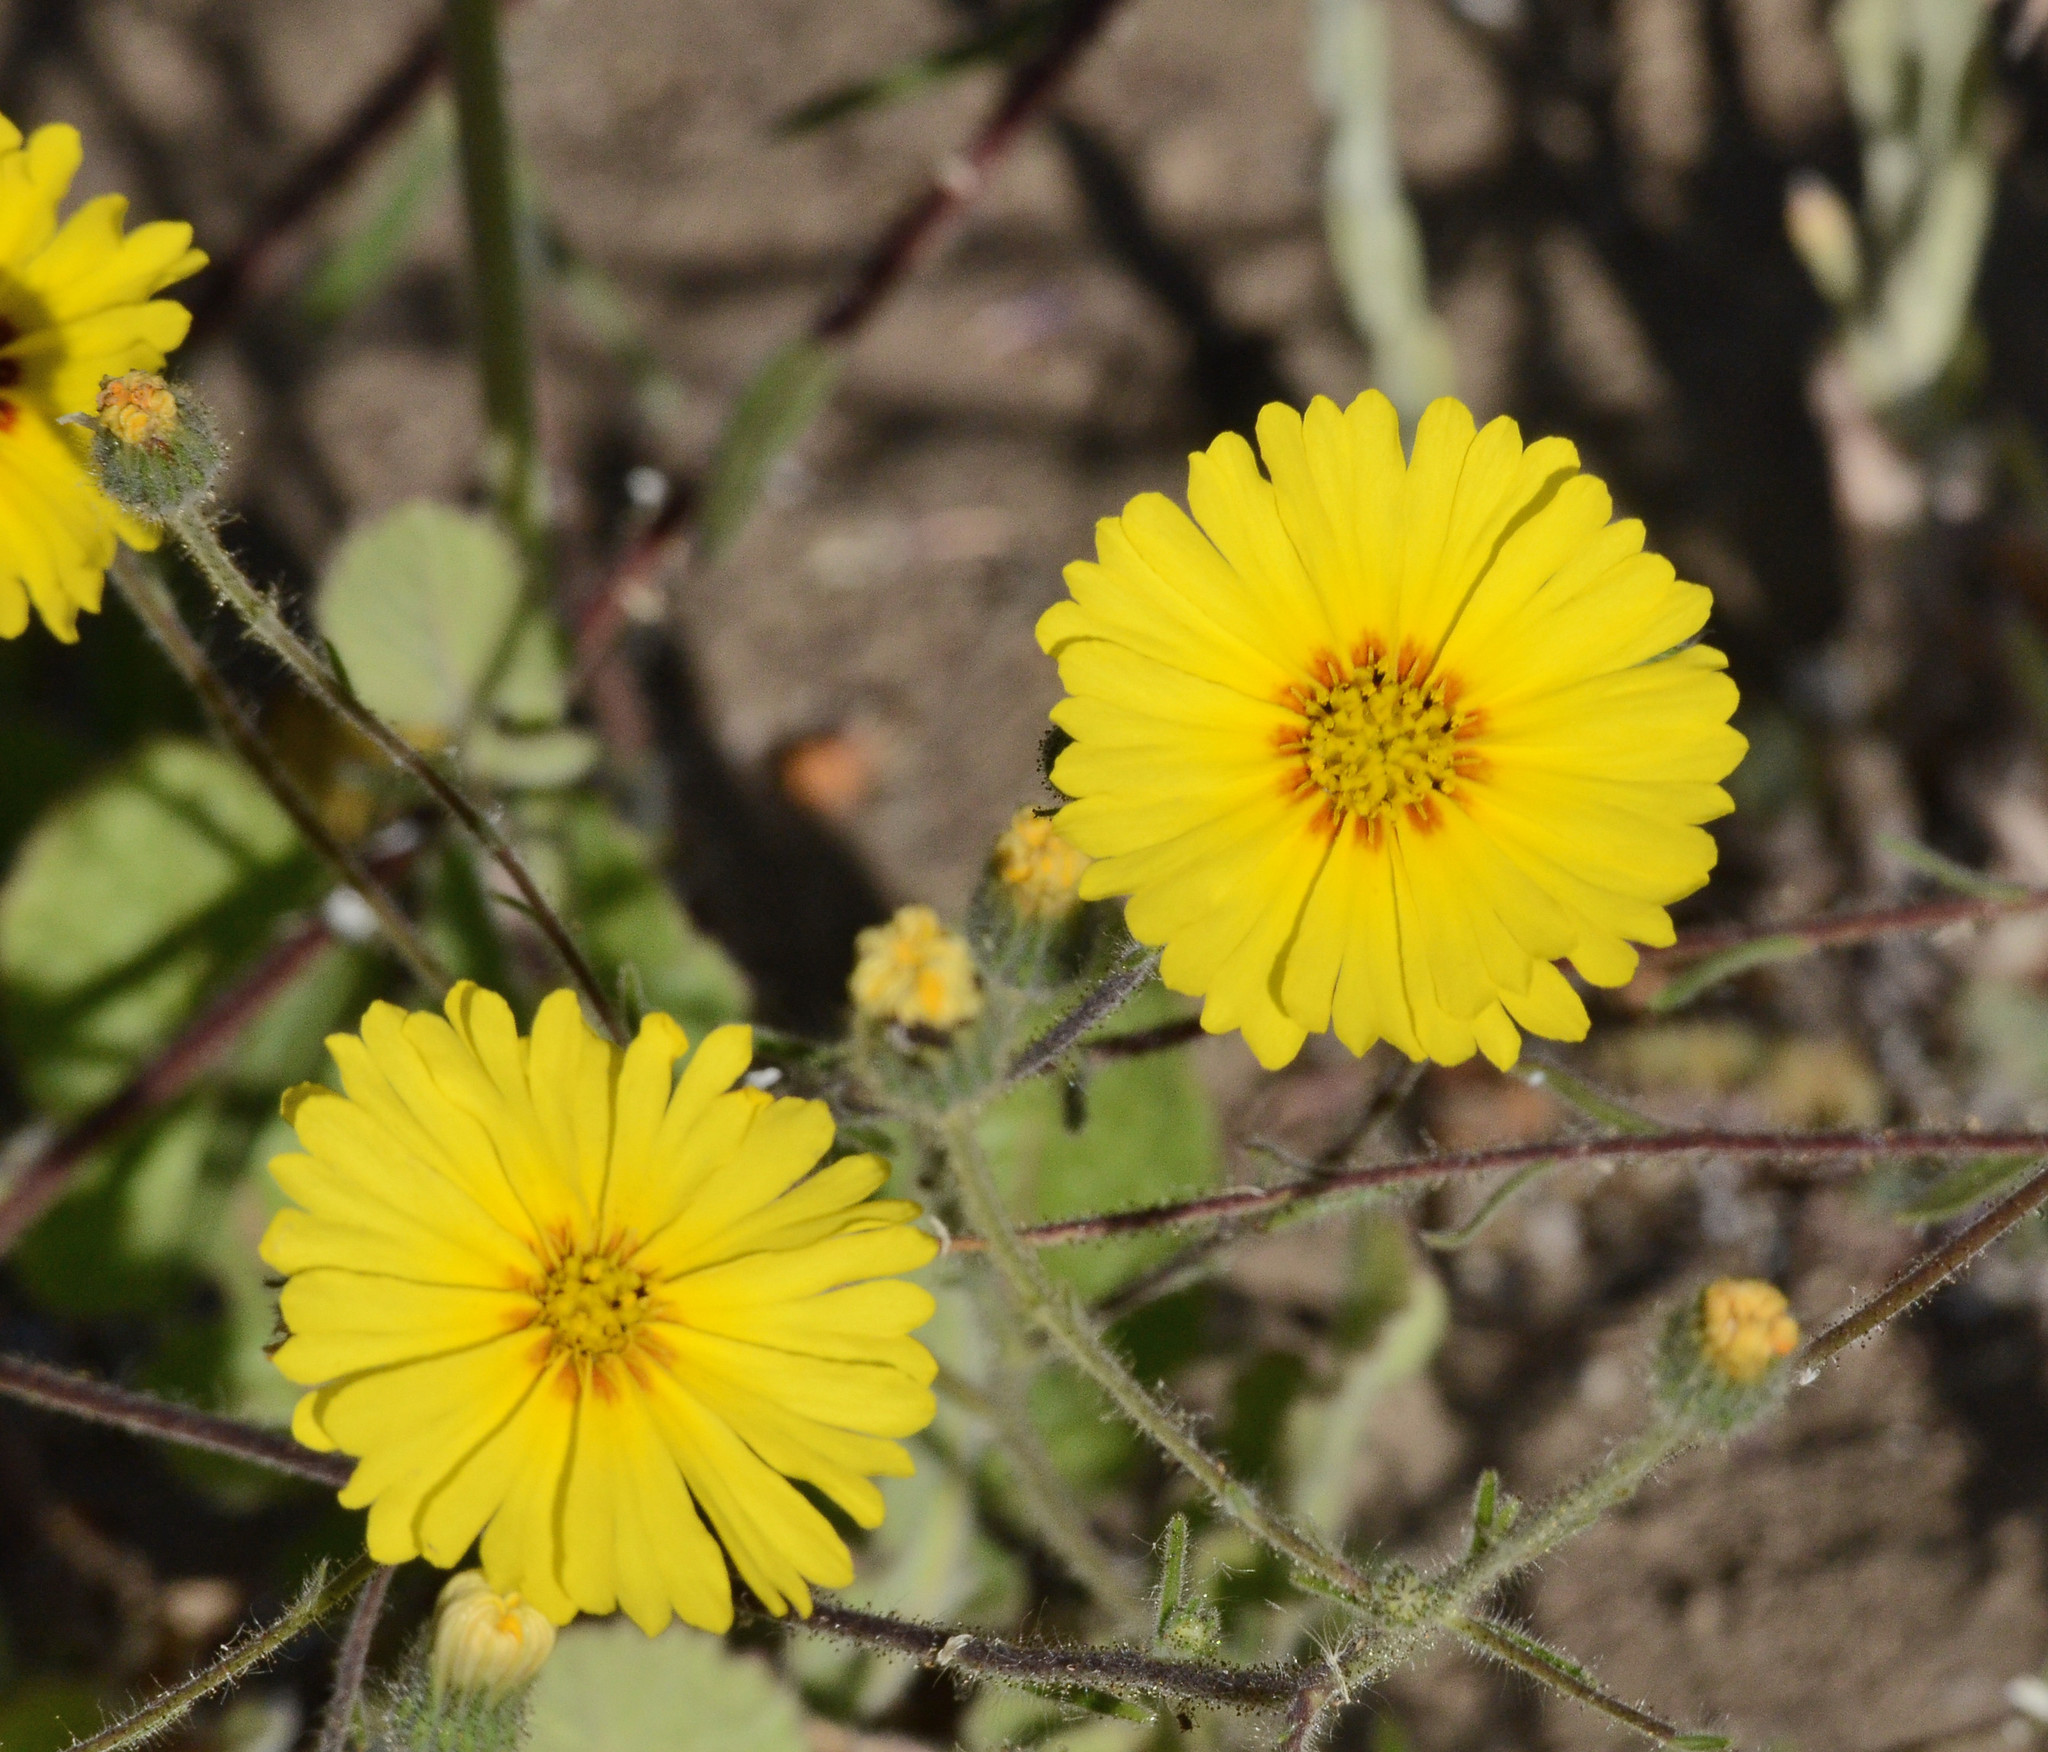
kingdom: Plantae
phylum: Tracheophyta
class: Magnoliopsida
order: Asterales
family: Asteraceae
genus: Madia
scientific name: Madia elegans
